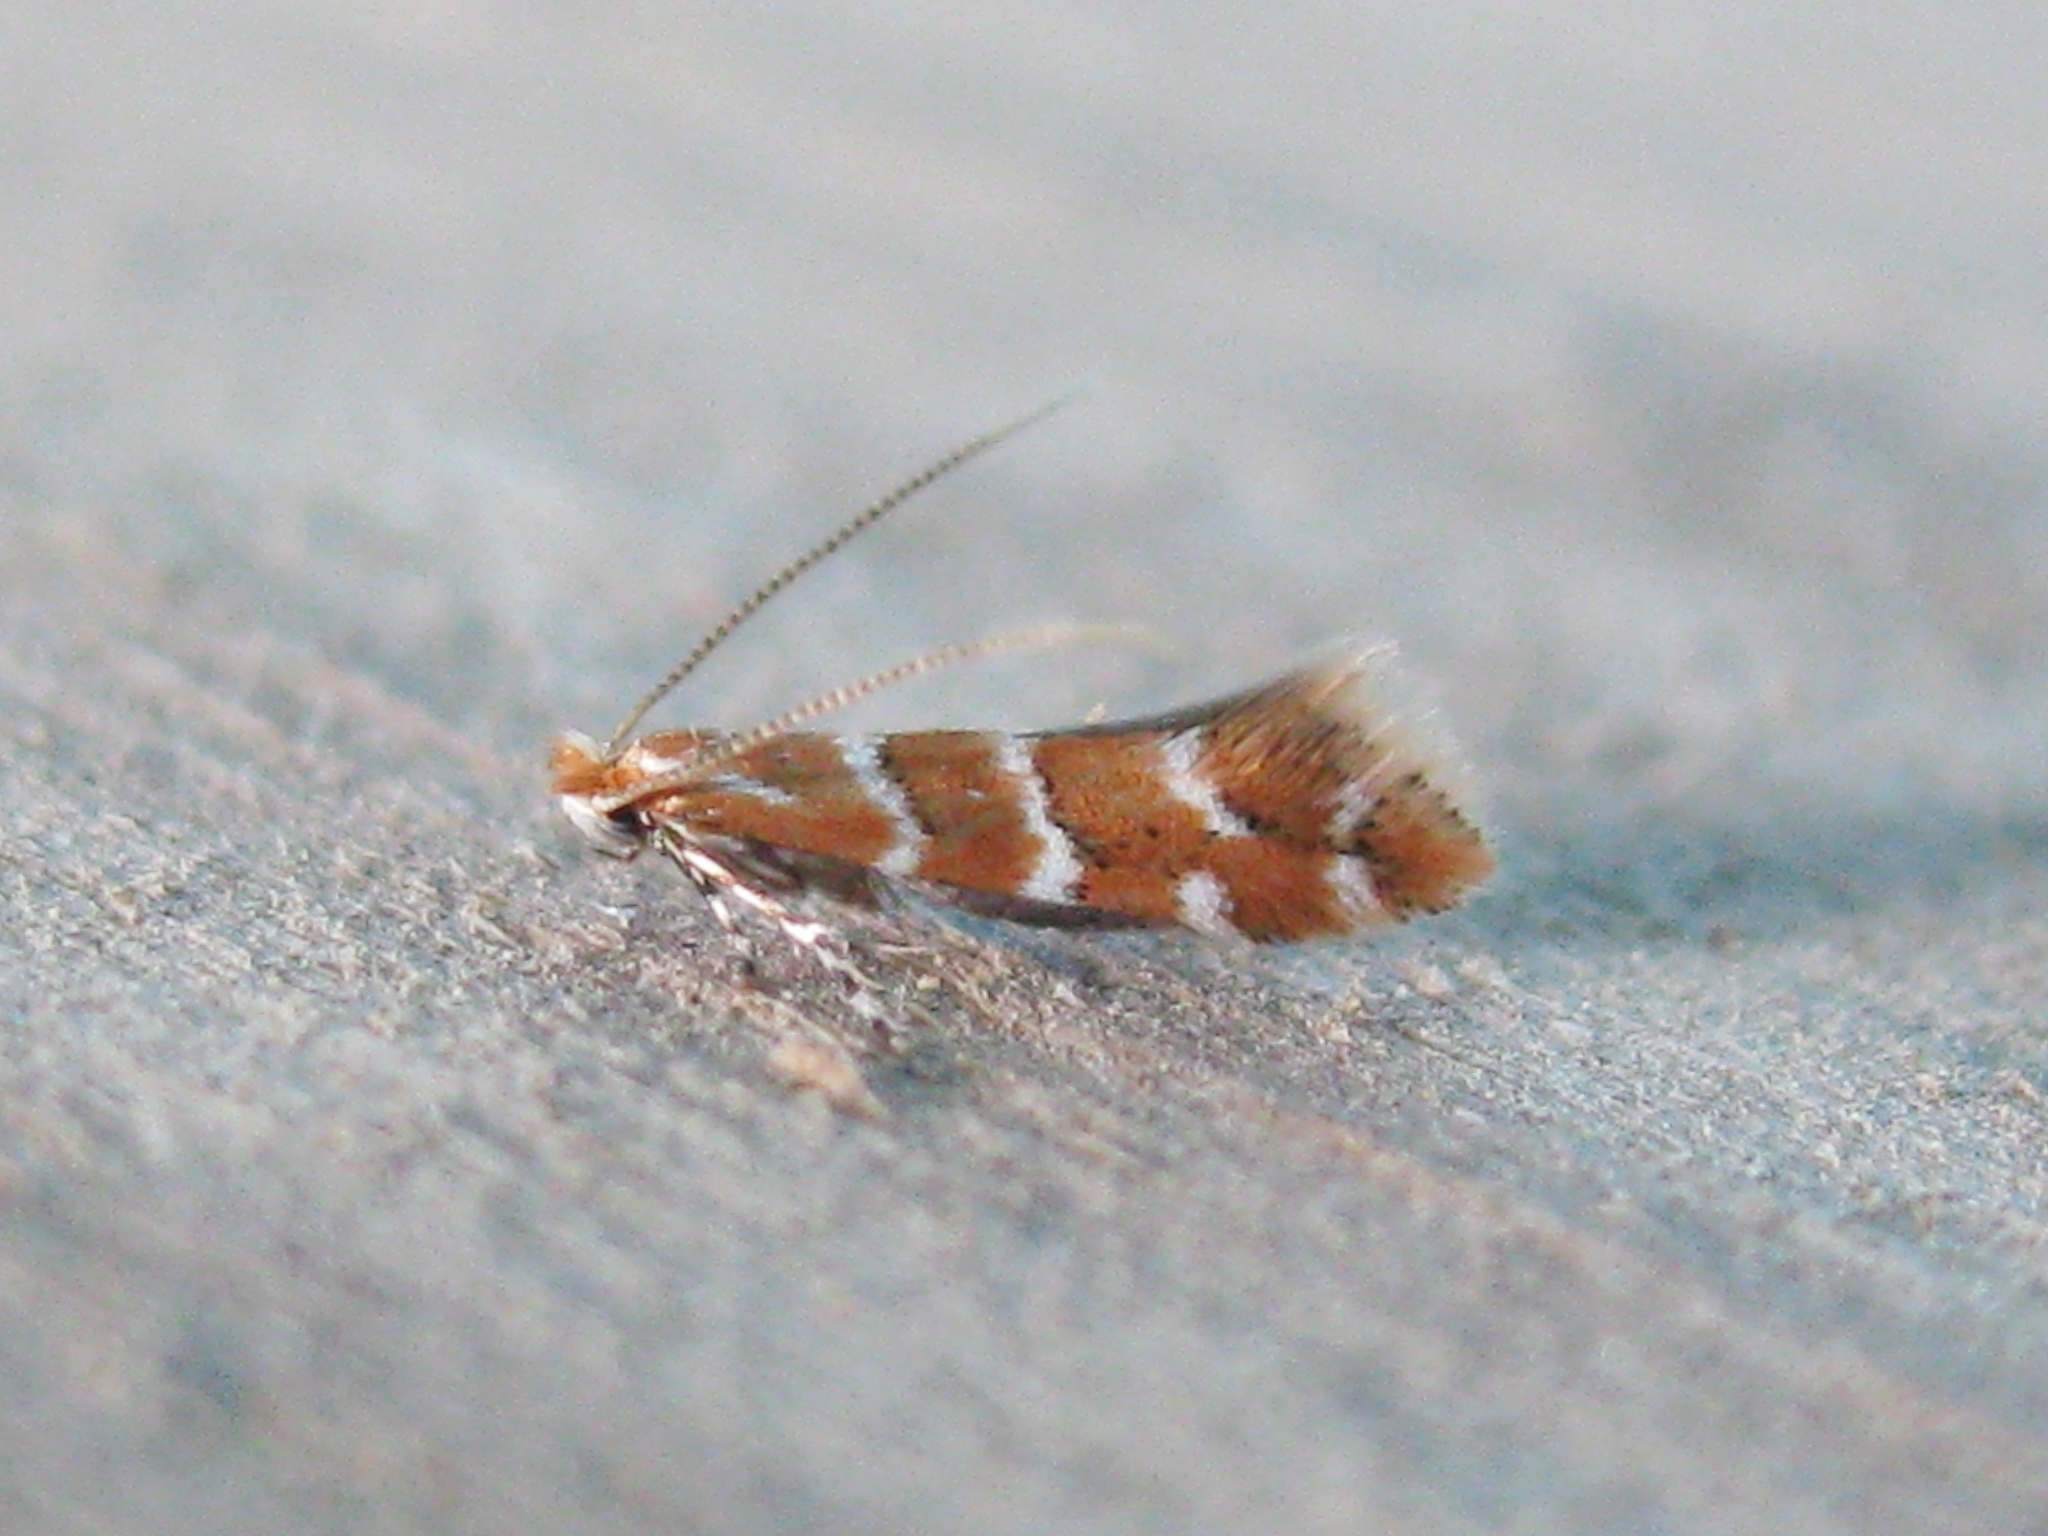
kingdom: Animalia
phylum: Arthropoda
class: Insecta
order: Lepidoptera
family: Gracillariidae
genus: Cameraria
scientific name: Cameraria ohridella
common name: Horse-chestnut leaf-miner
